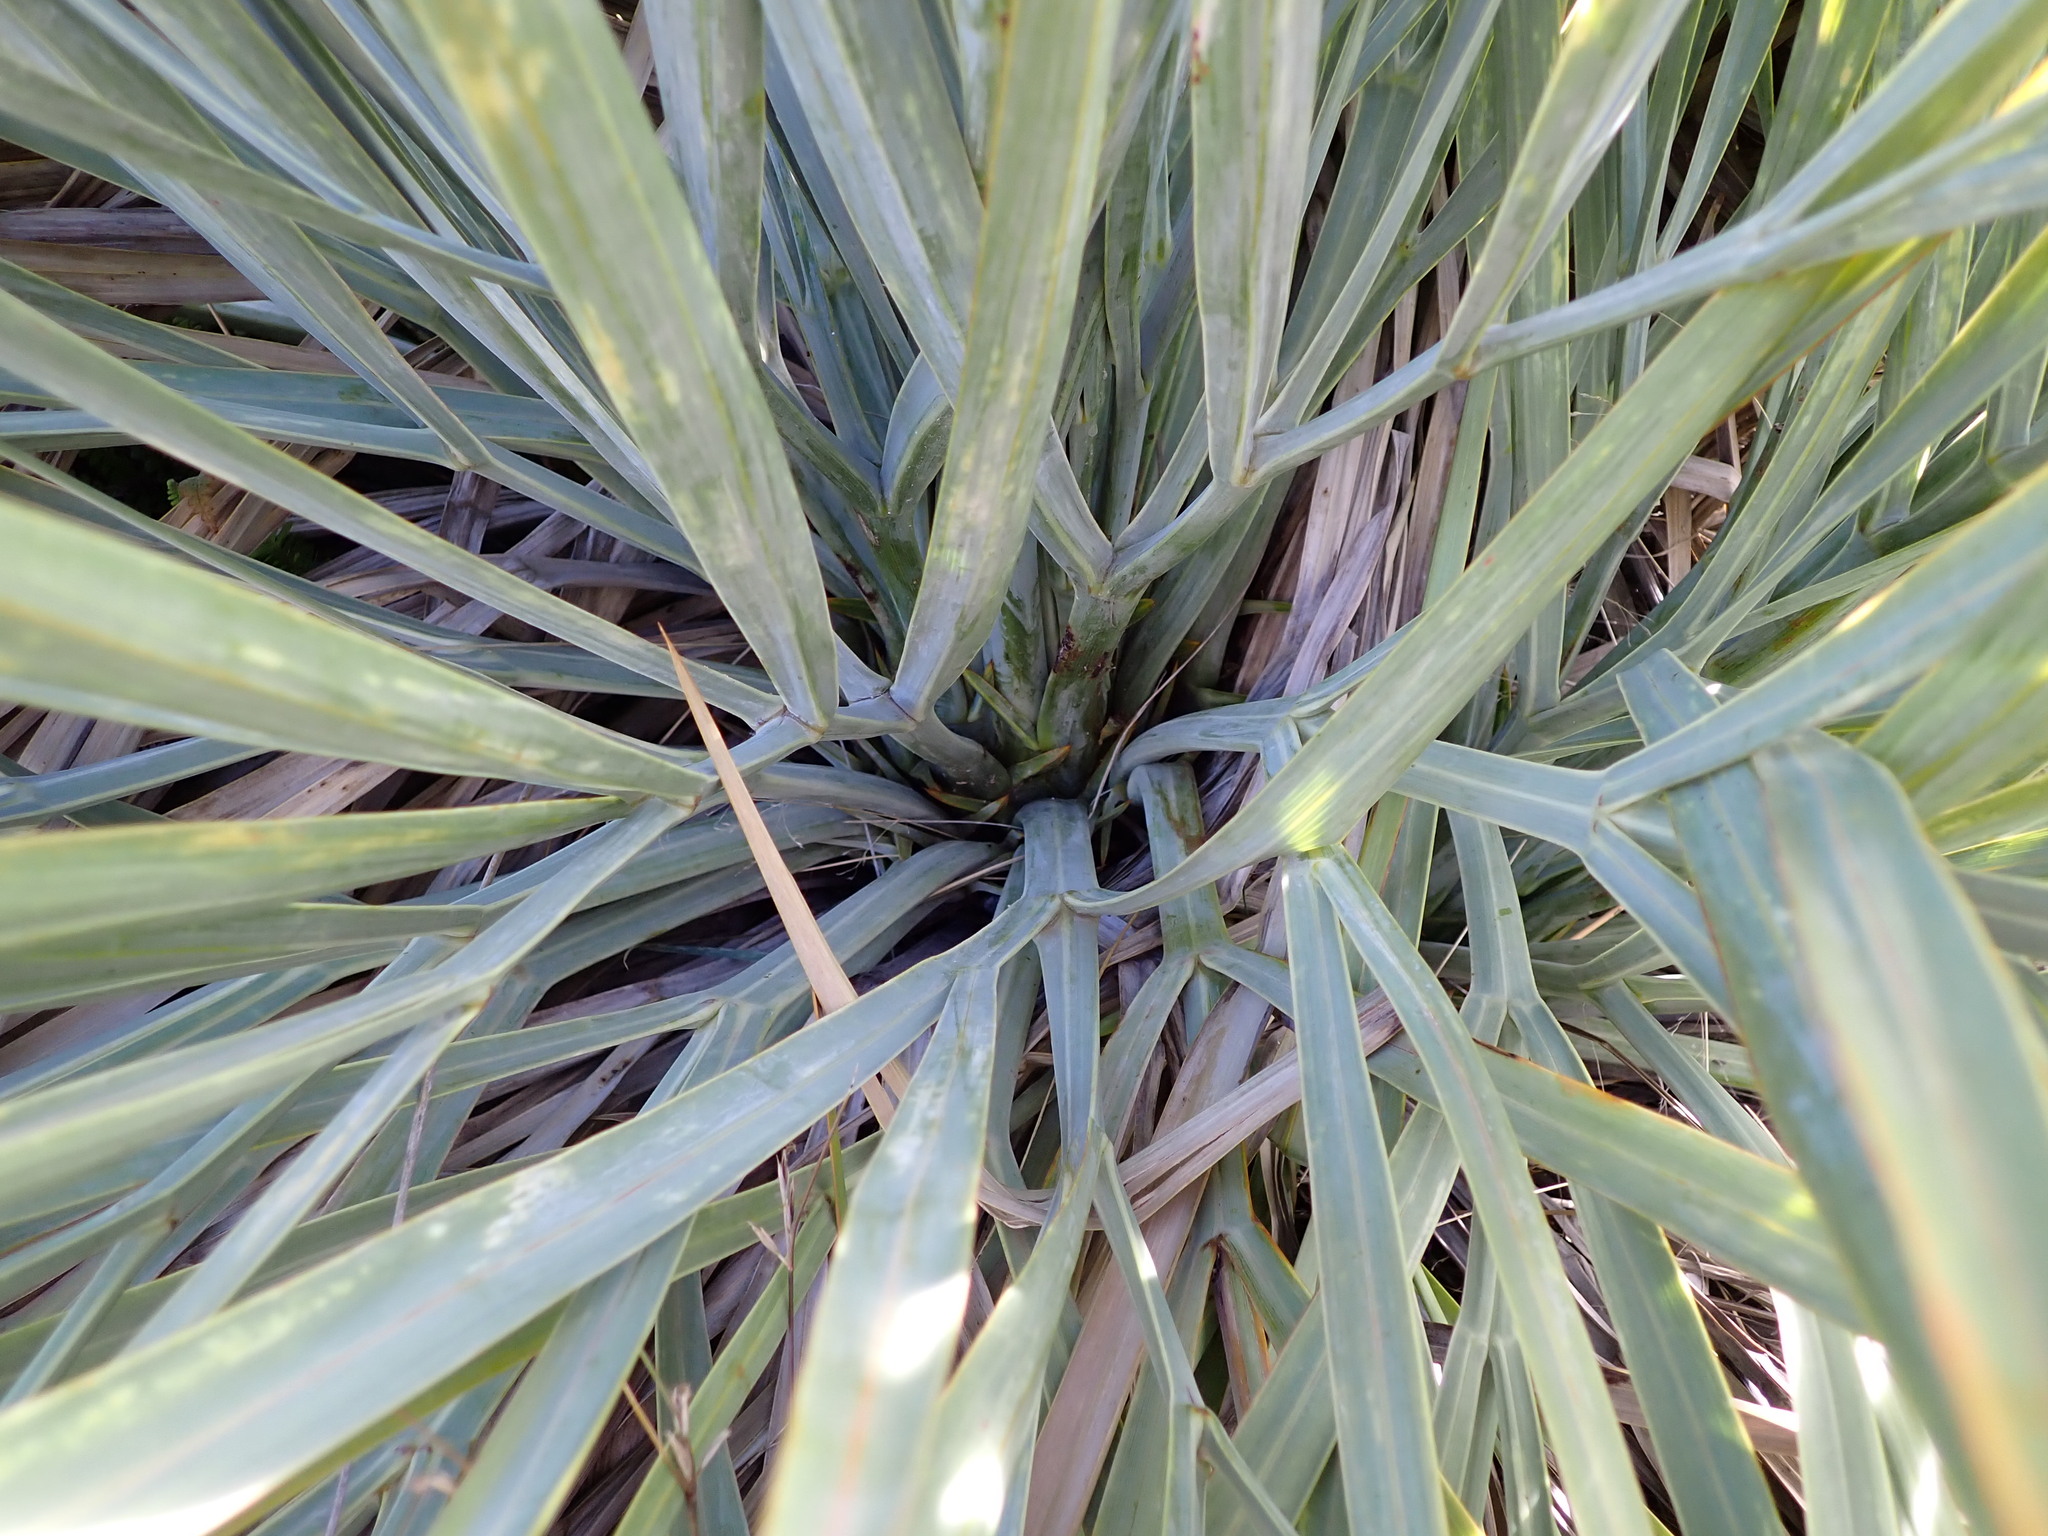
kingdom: Plantae
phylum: Tracheophyta
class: Magnoliopsida
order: Apiales
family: Apiaceae
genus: Aciphylla
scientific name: Aciphylla scott-thomsonii
